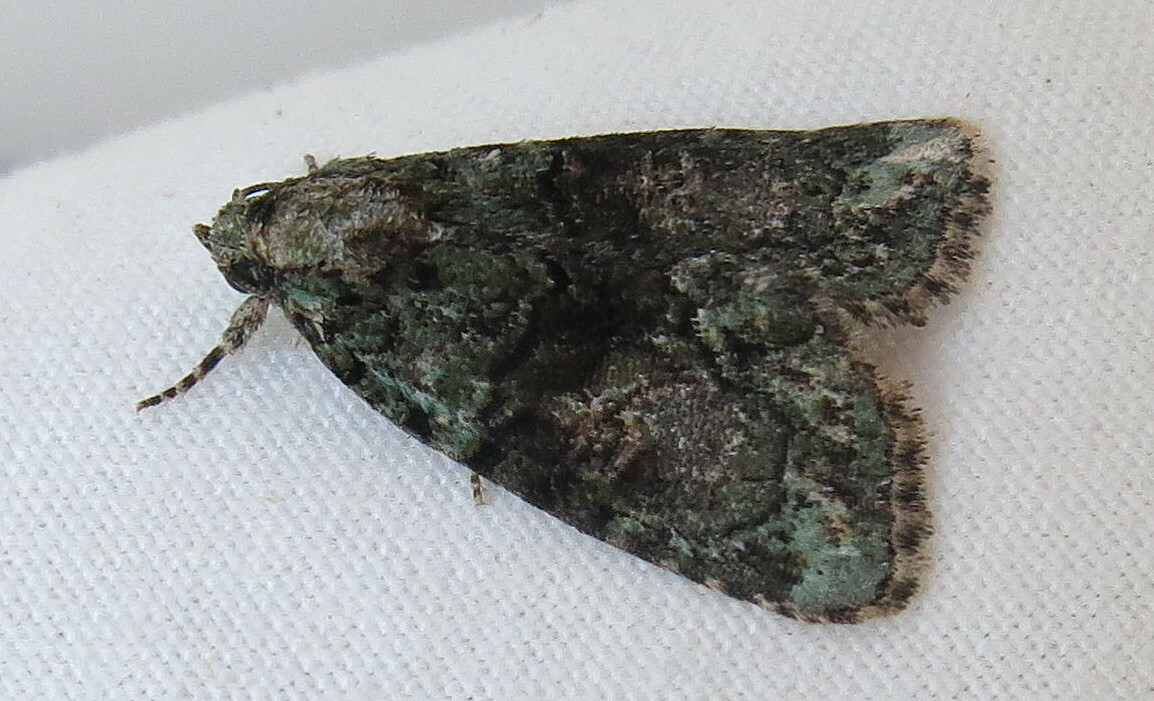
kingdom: Animalia
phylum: Arthropoda
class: Insecta
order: Lepidoptera
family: Noctuidae
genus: Cryphia
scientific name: Cryphia algae
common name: Tree-lichen beauty
